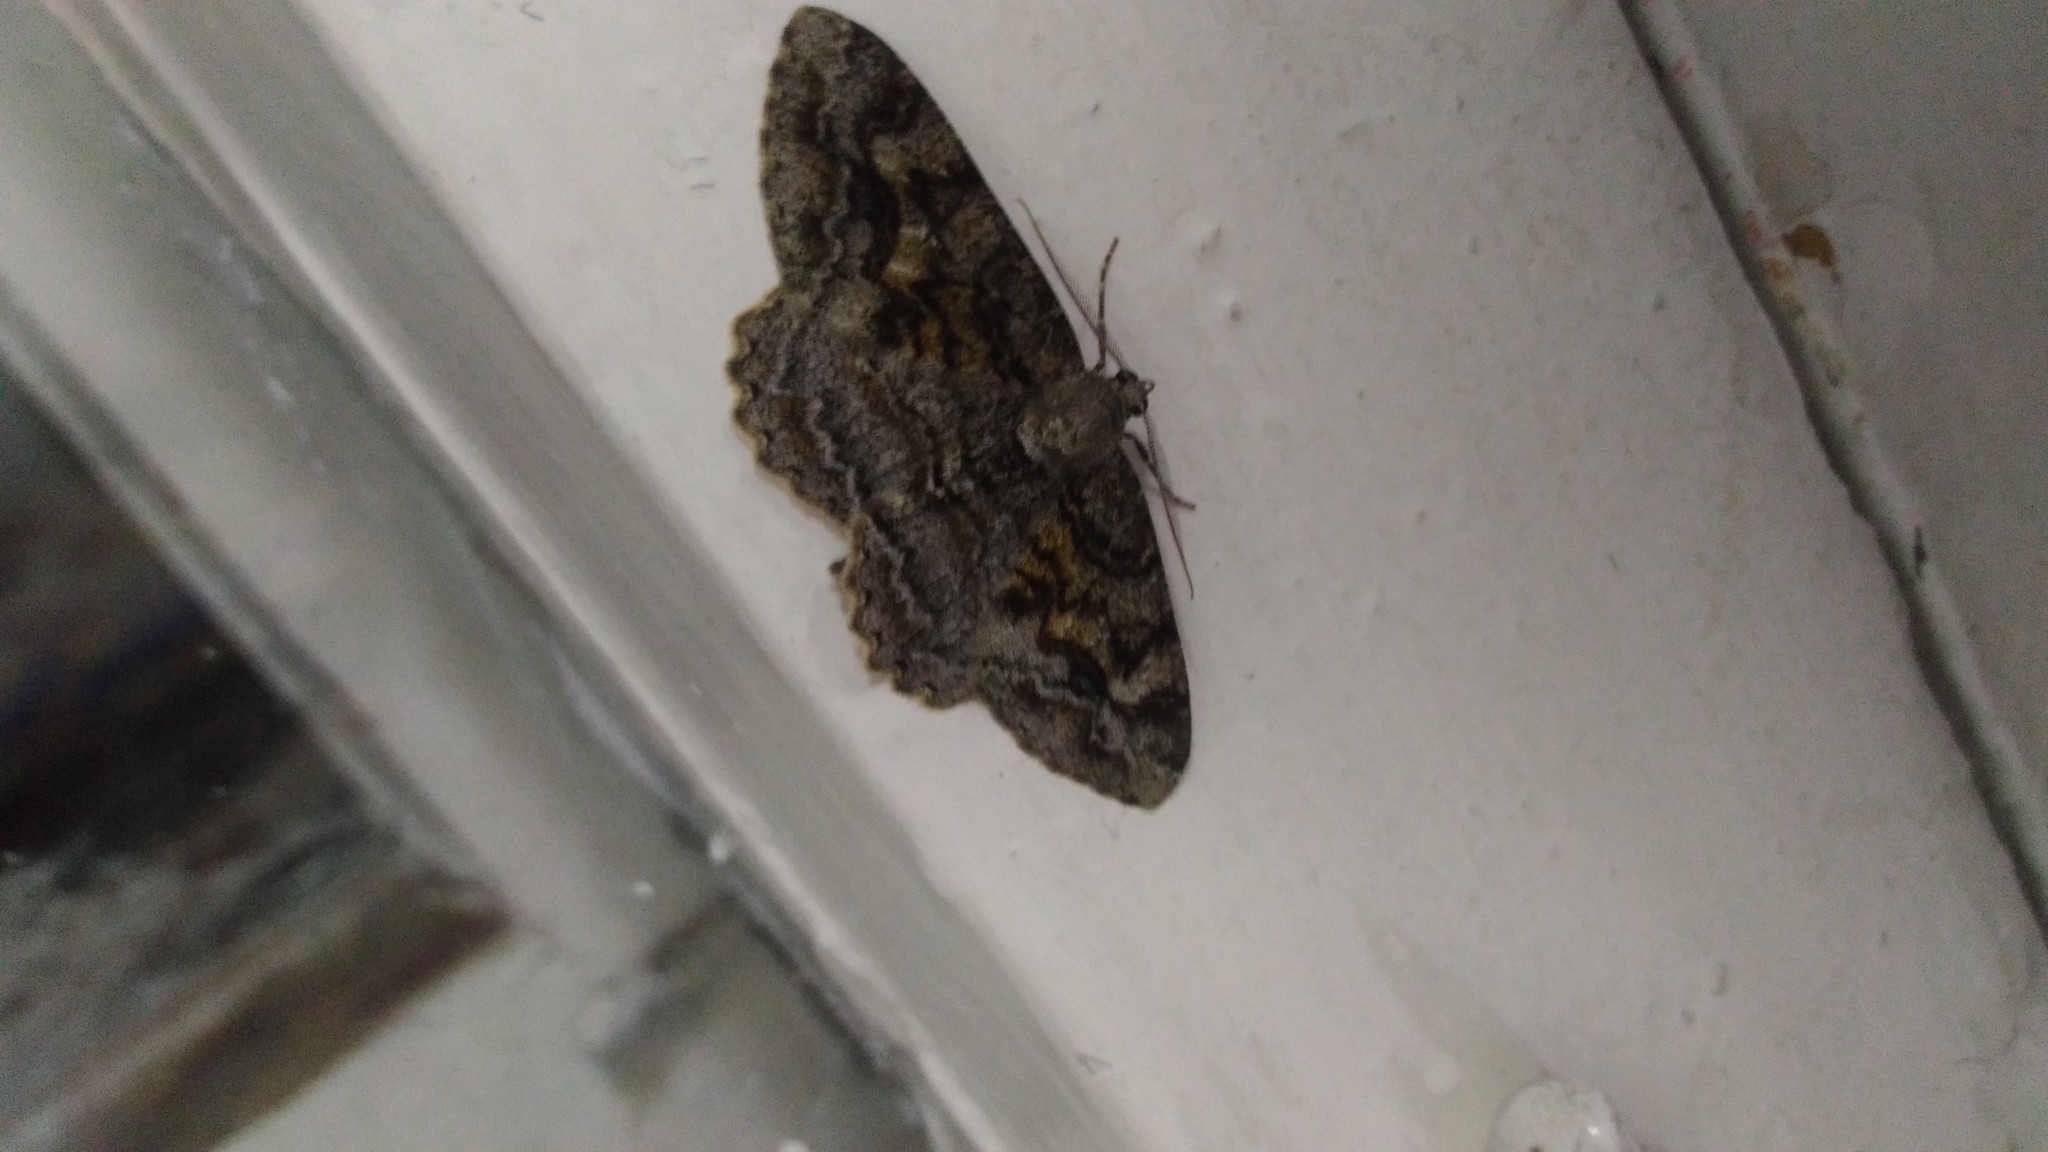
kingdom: Animalia
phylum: Arthropoda
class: Insecta
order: Lepidoptera
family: Geometridae
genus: Alcis
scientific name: Alcis repandata
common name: Mottled beauty
